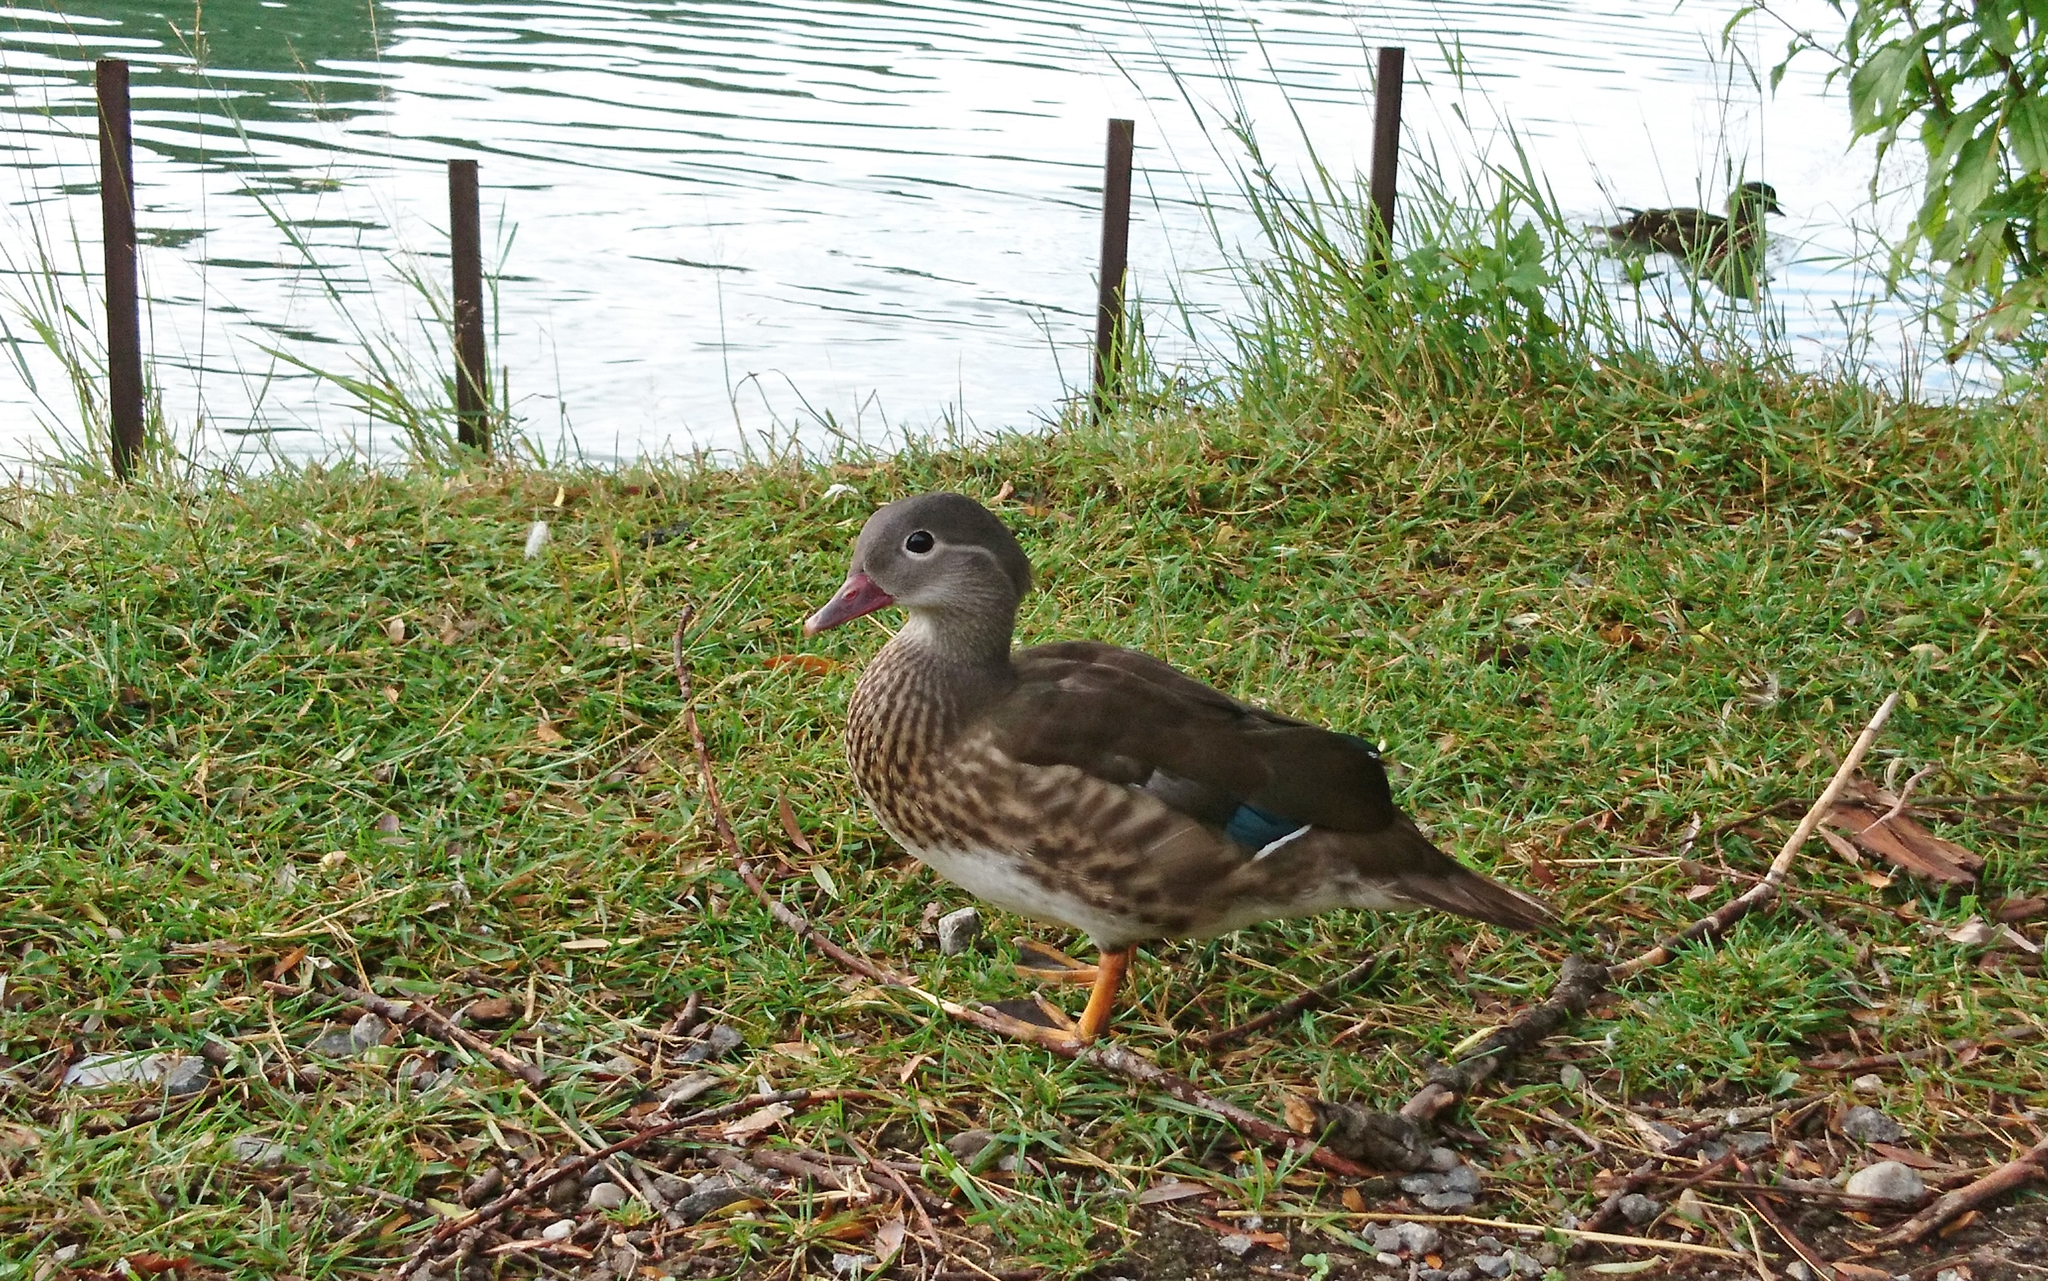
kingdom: Animalia
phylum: Chordata
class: Aves
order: Anseriformes
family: Anatidae
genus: Aix
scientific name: Aix galericulata
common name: Mandarin duck
